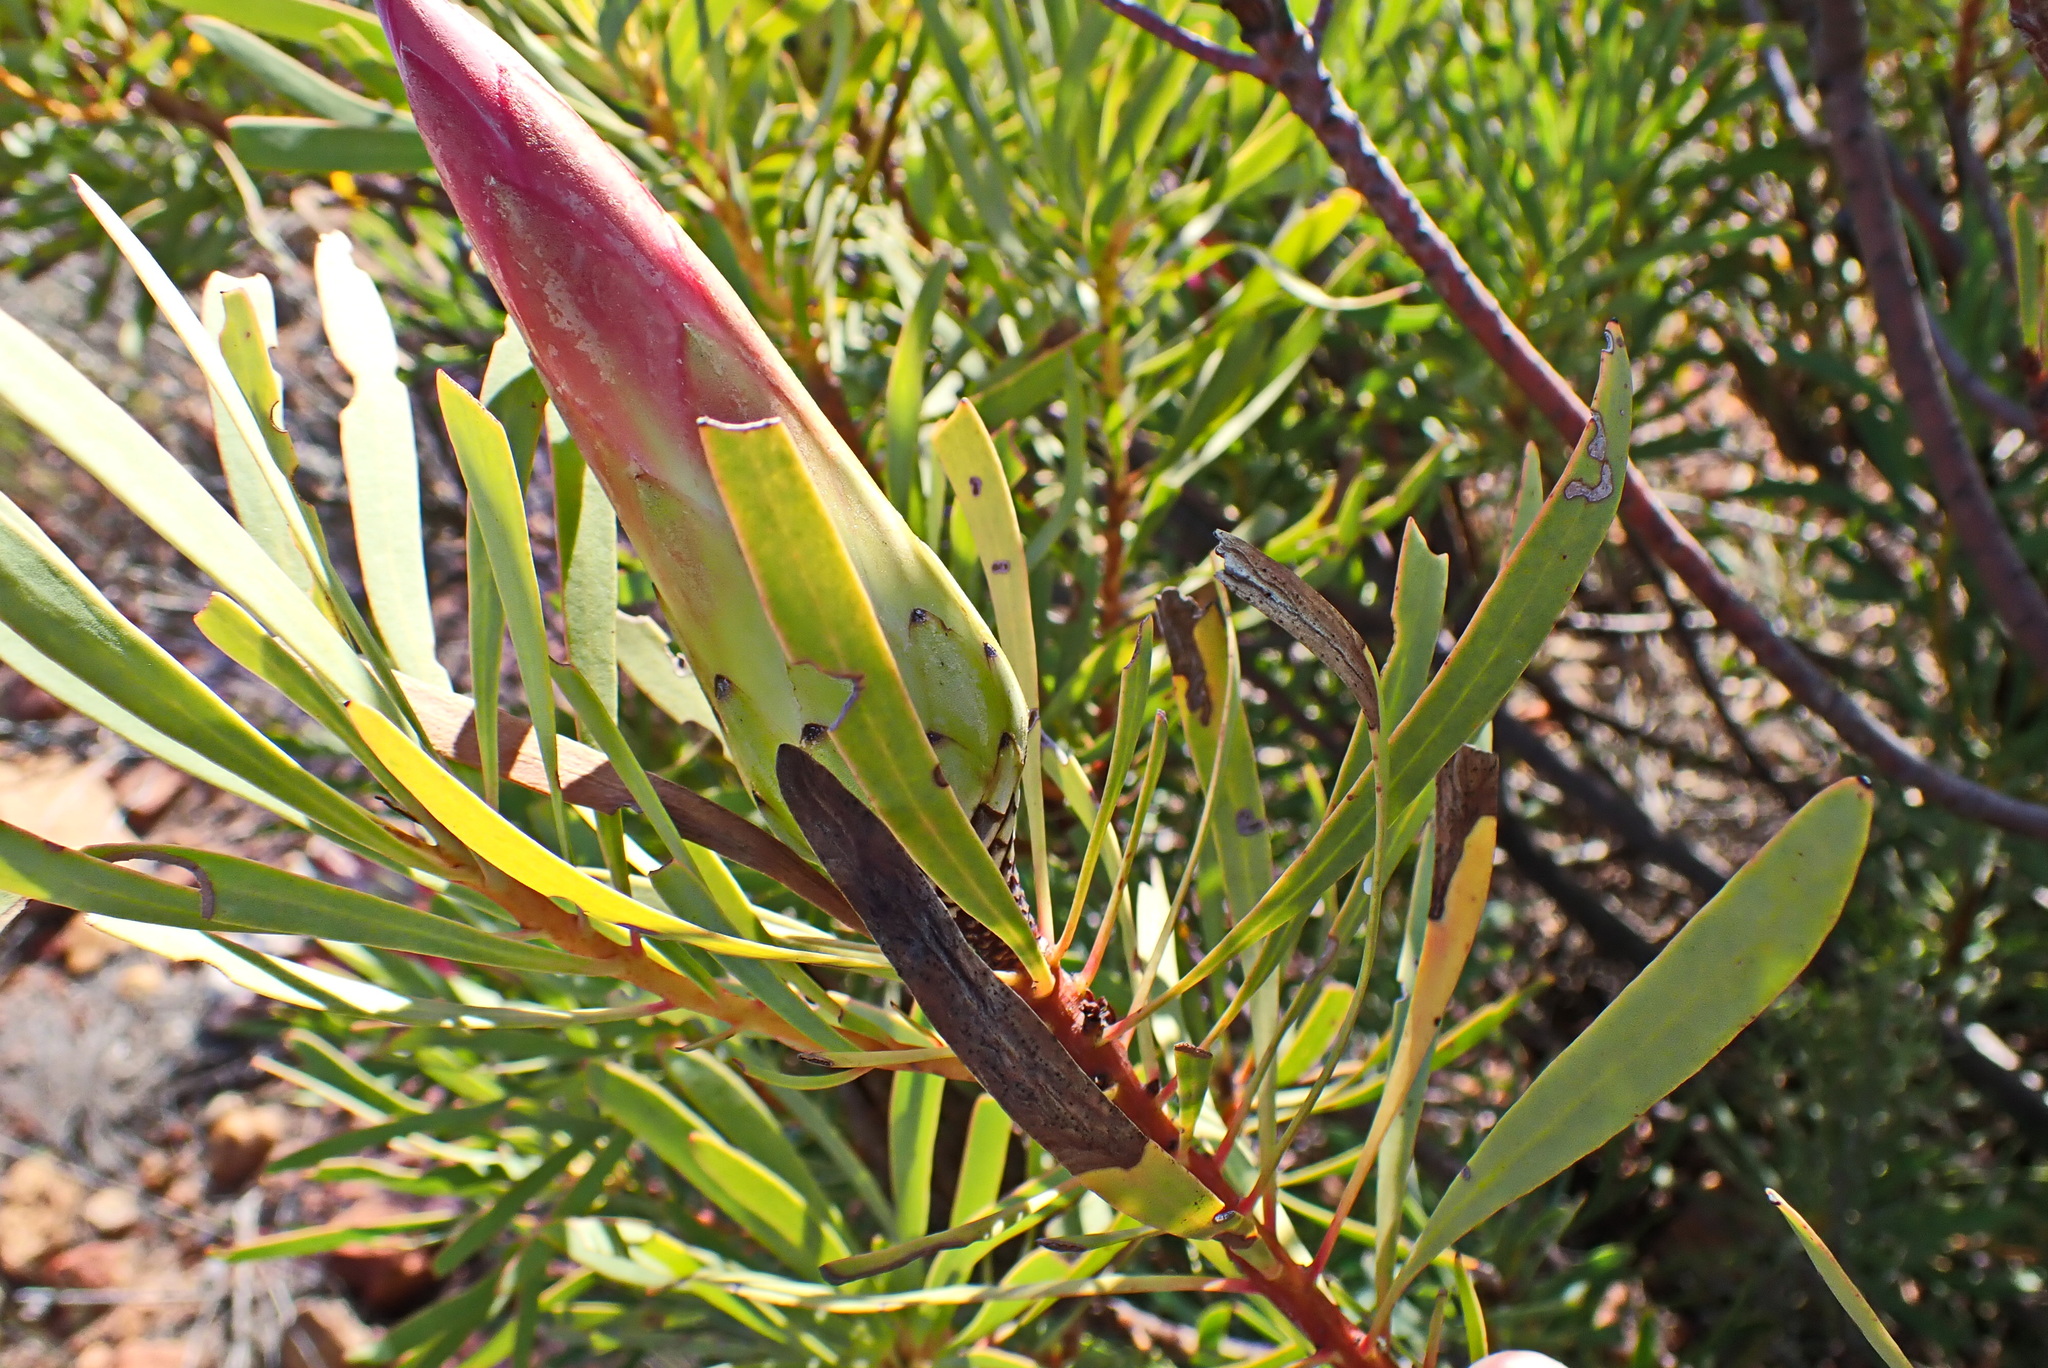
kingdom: Plantae
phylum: Tracheophyta
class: Magnoliopsida
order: Proteales
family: Proteaceae
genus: Protea
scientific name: Protea repens
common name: Sugarbush
